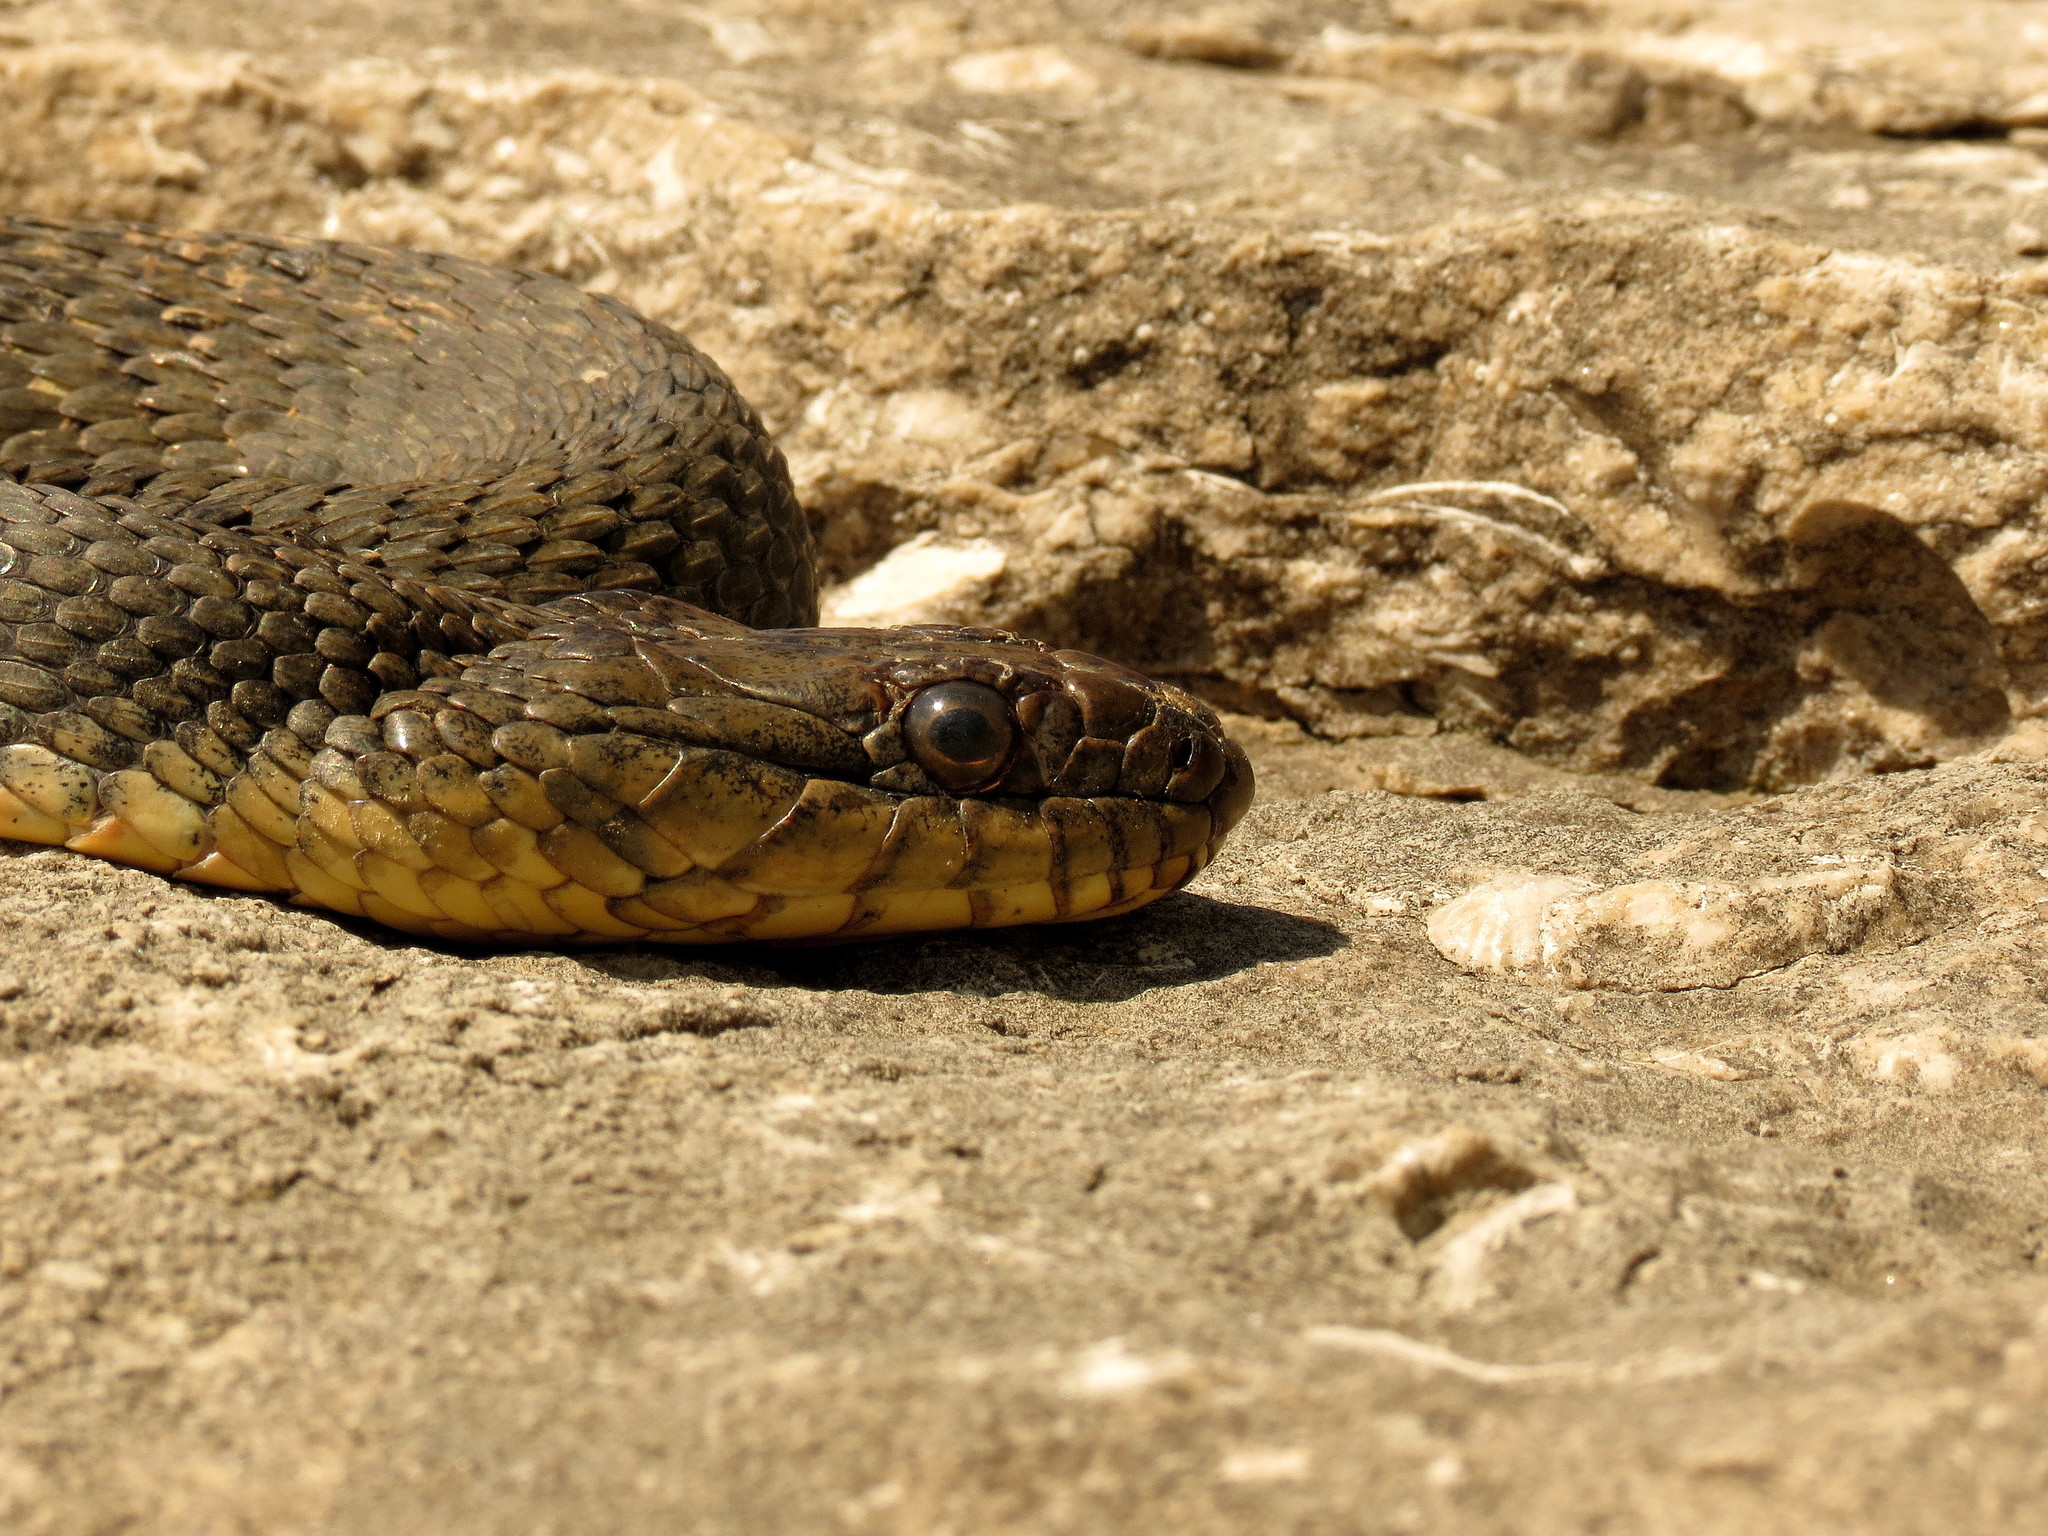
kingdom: Animalia
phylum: Chordata
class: Squamata
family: Colubridae
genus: Nerodia
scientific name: Nerodia sipedon
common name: Northern water snake
